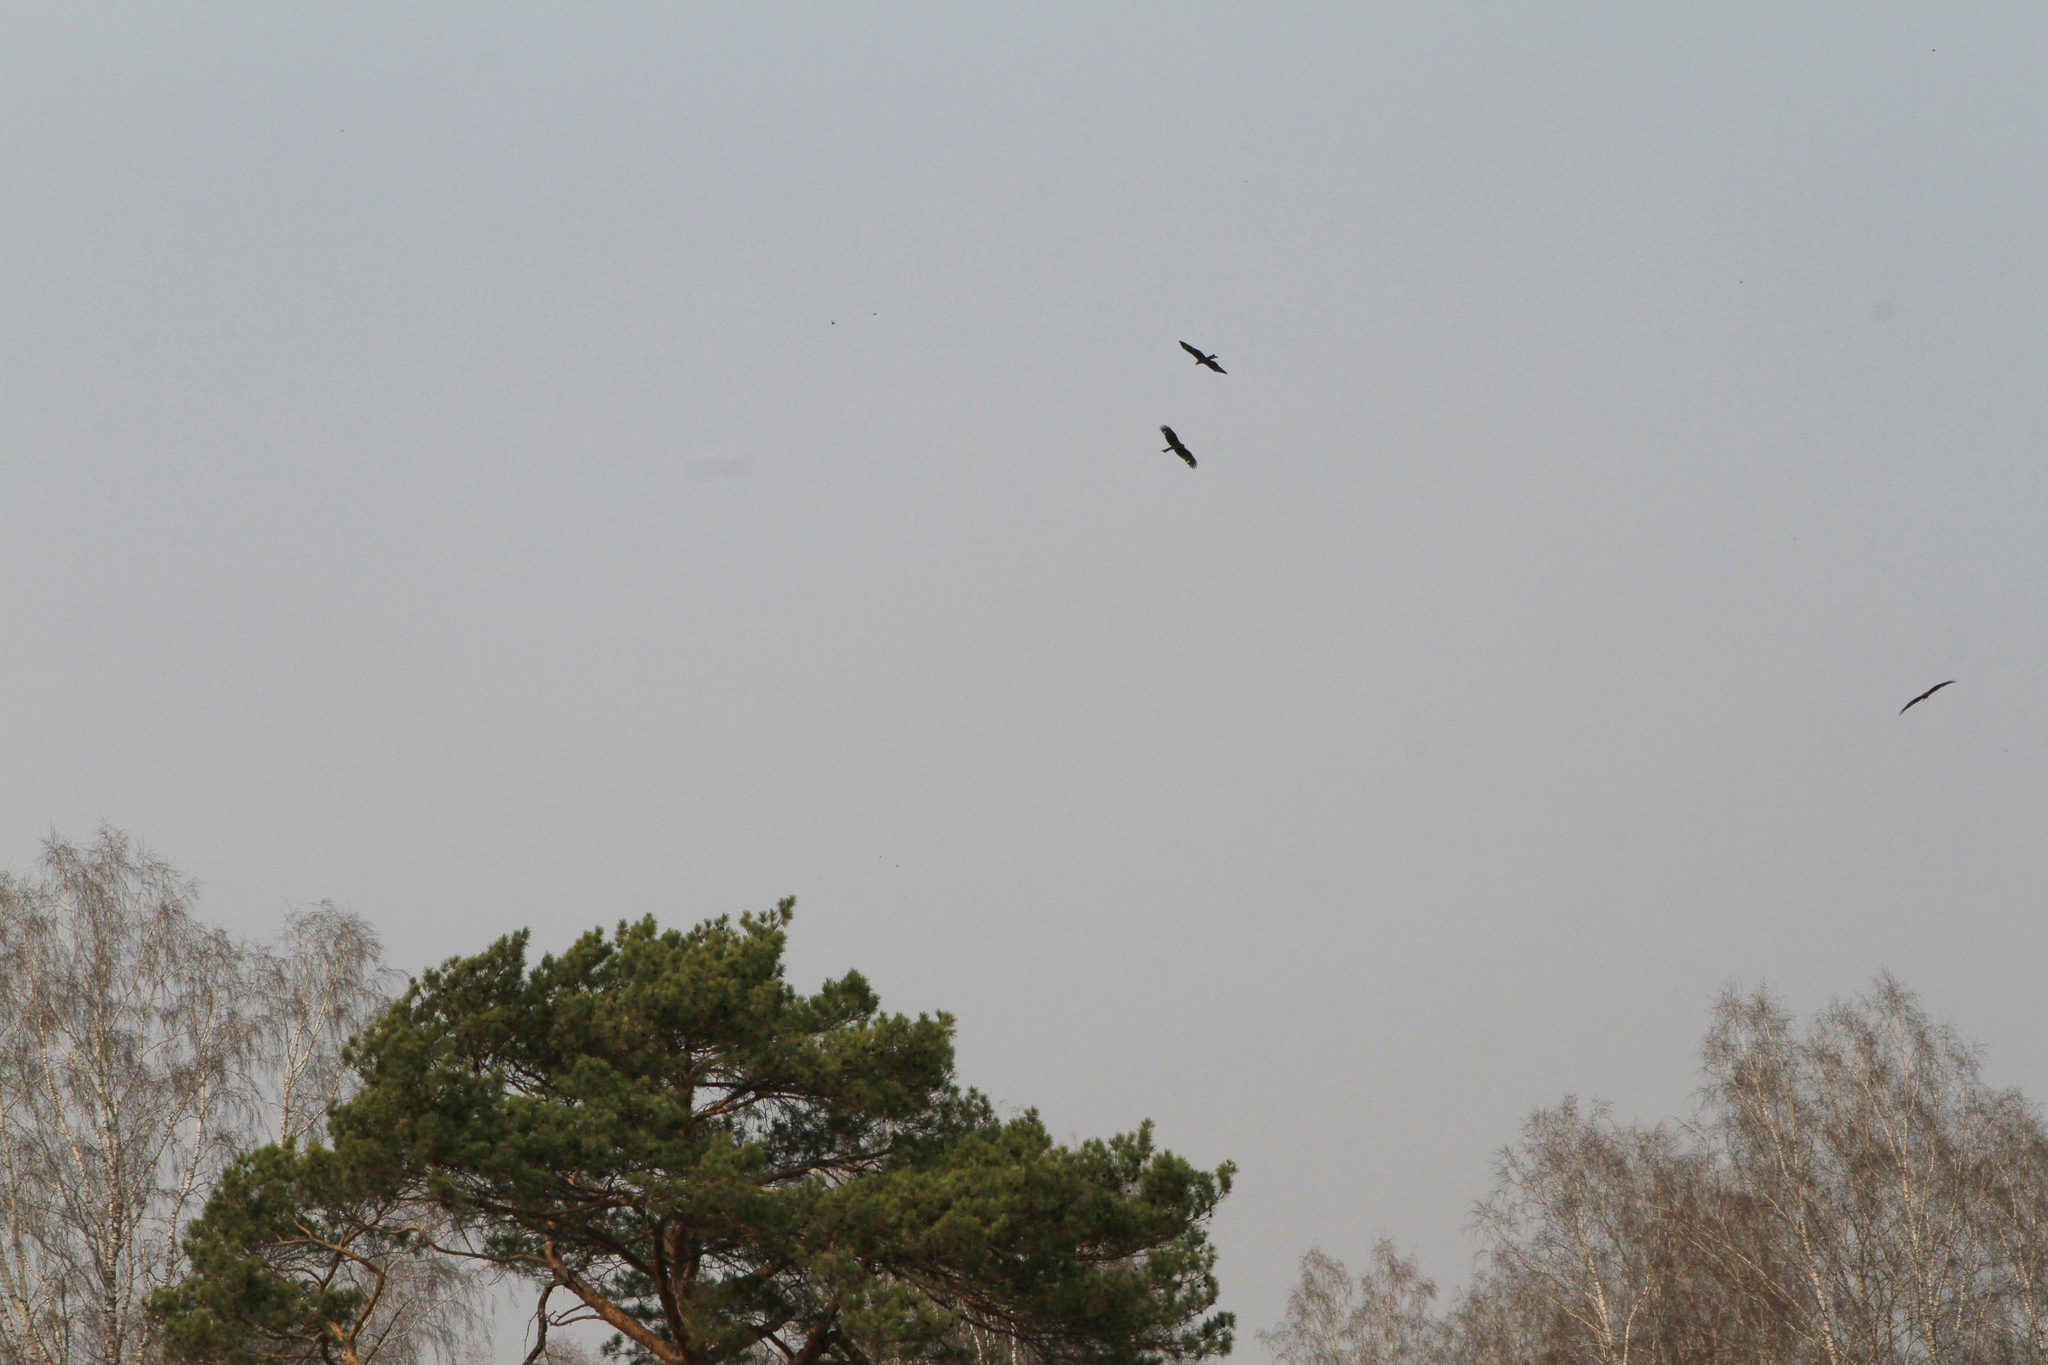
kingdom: Animalia
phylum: Chordata
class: Aves
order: Accipitriformes
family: Accipitridae
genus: Milvus
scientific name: Milvus migrans
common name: Black kite
